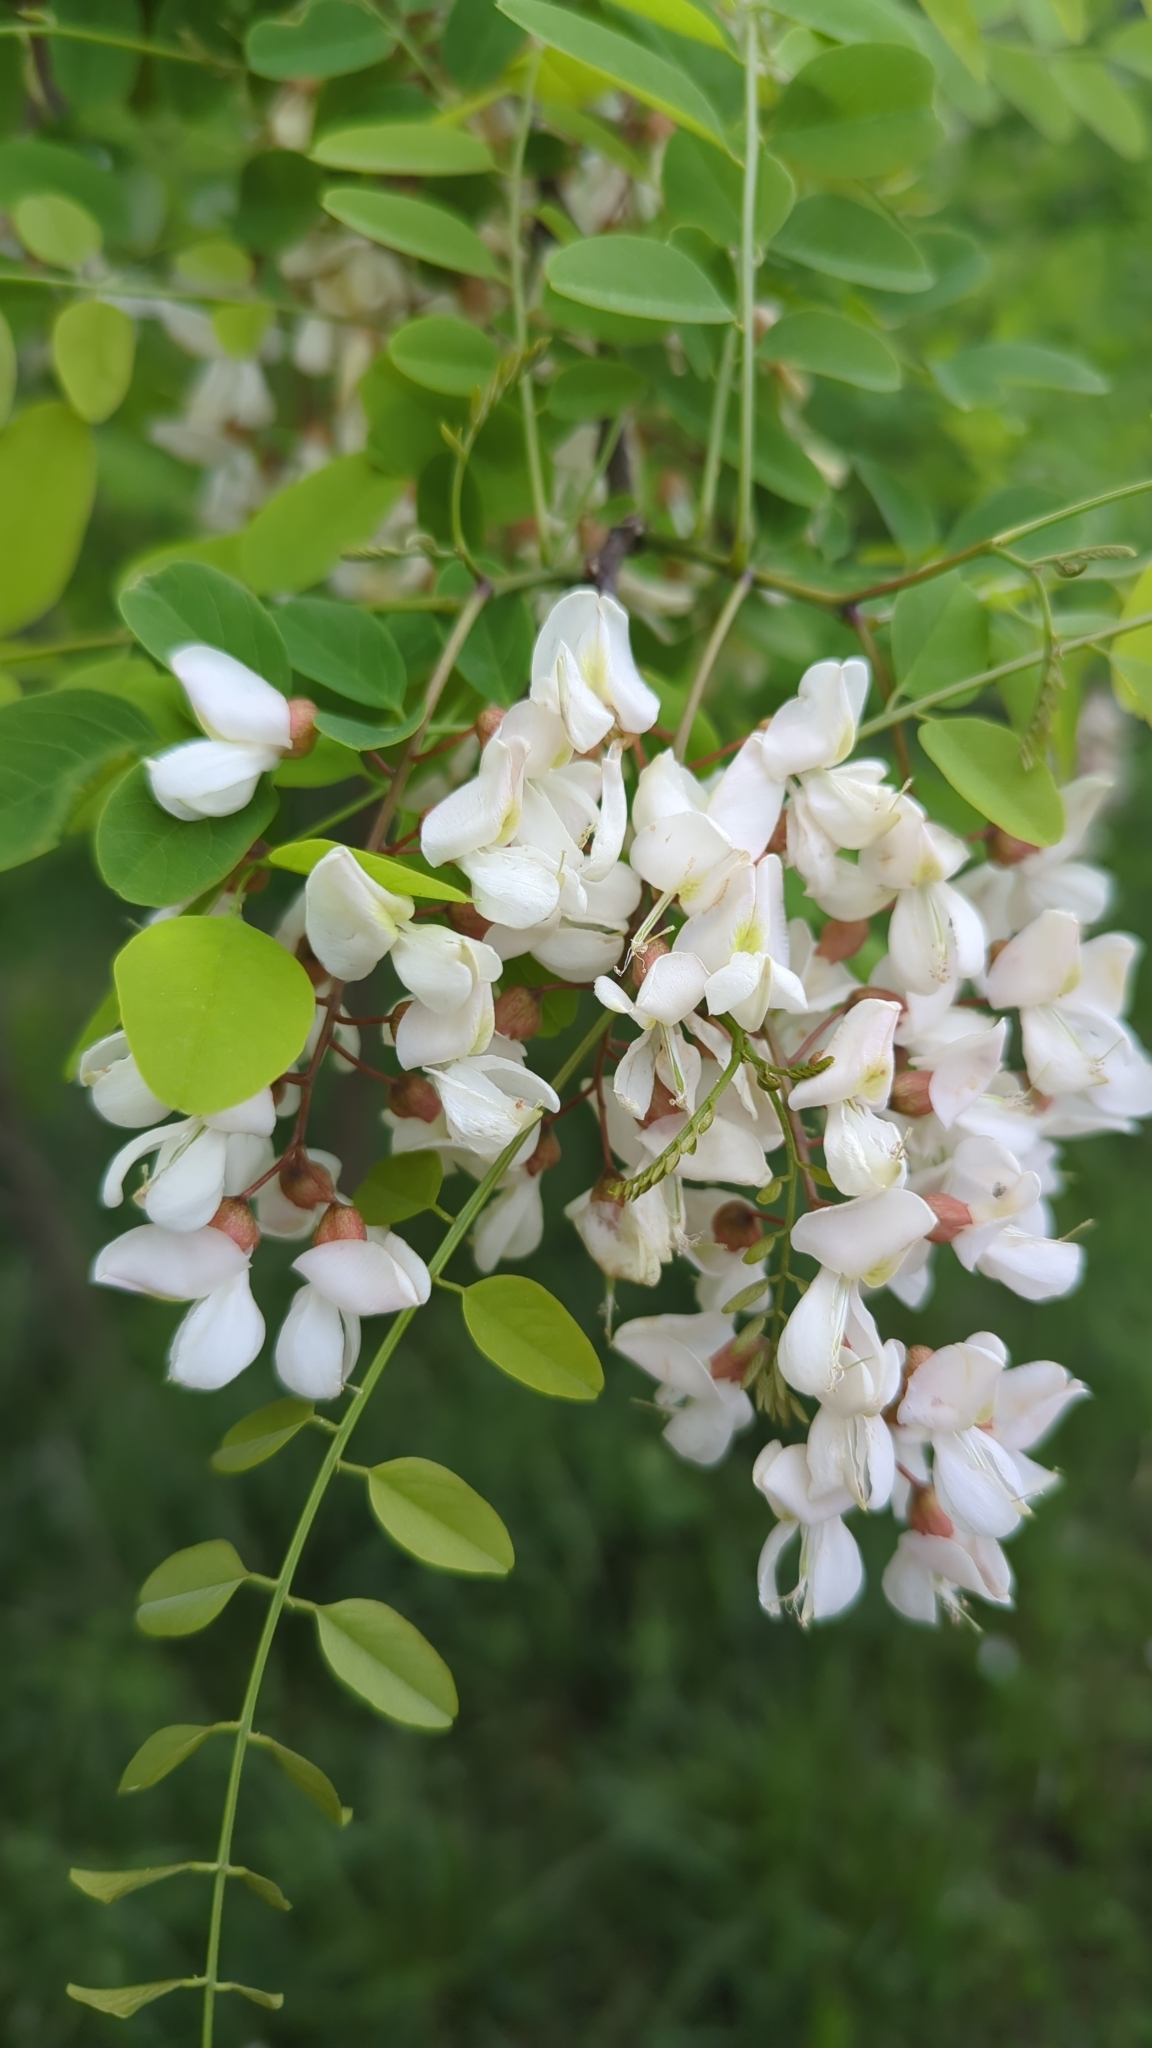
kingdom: Plantae
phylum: Tracheophyta
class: Magnoliopsida
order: Fabales
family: Fabaceae
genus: Robinia
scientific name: Robinia pseudoacacia
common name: Black locust
